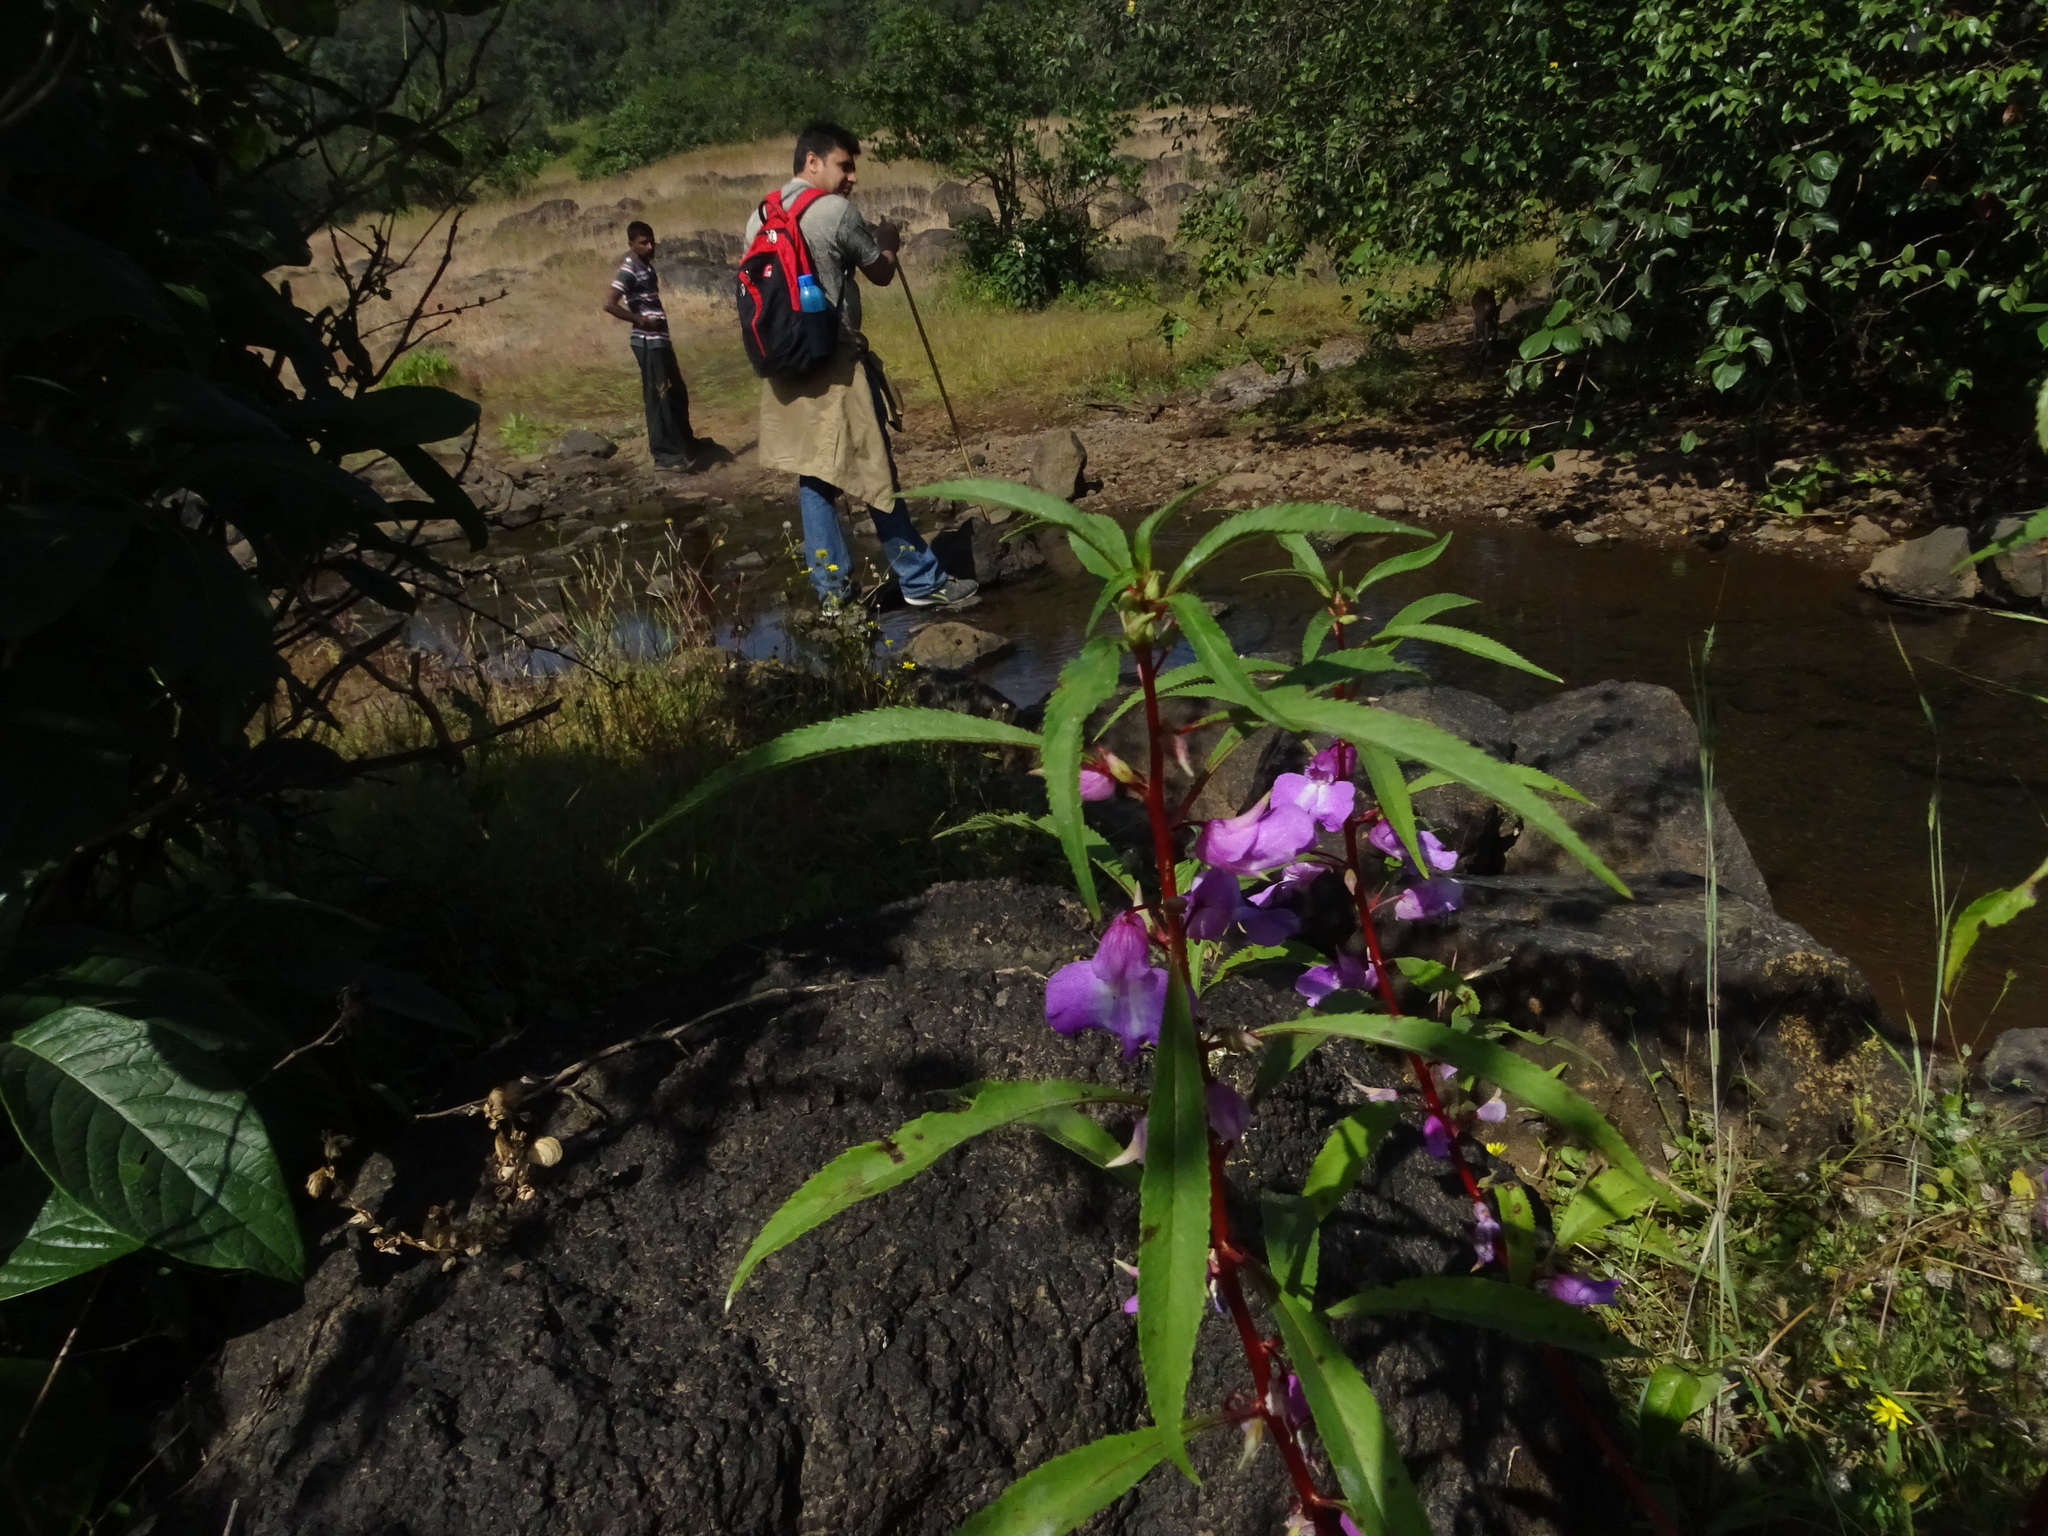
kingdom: Plantae
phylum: Tracheophyta
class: Magnoliopsida
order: Ericales
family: Balsaminaceae
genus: Impatiens
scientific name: Impatiens balsamina
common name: Balsam
